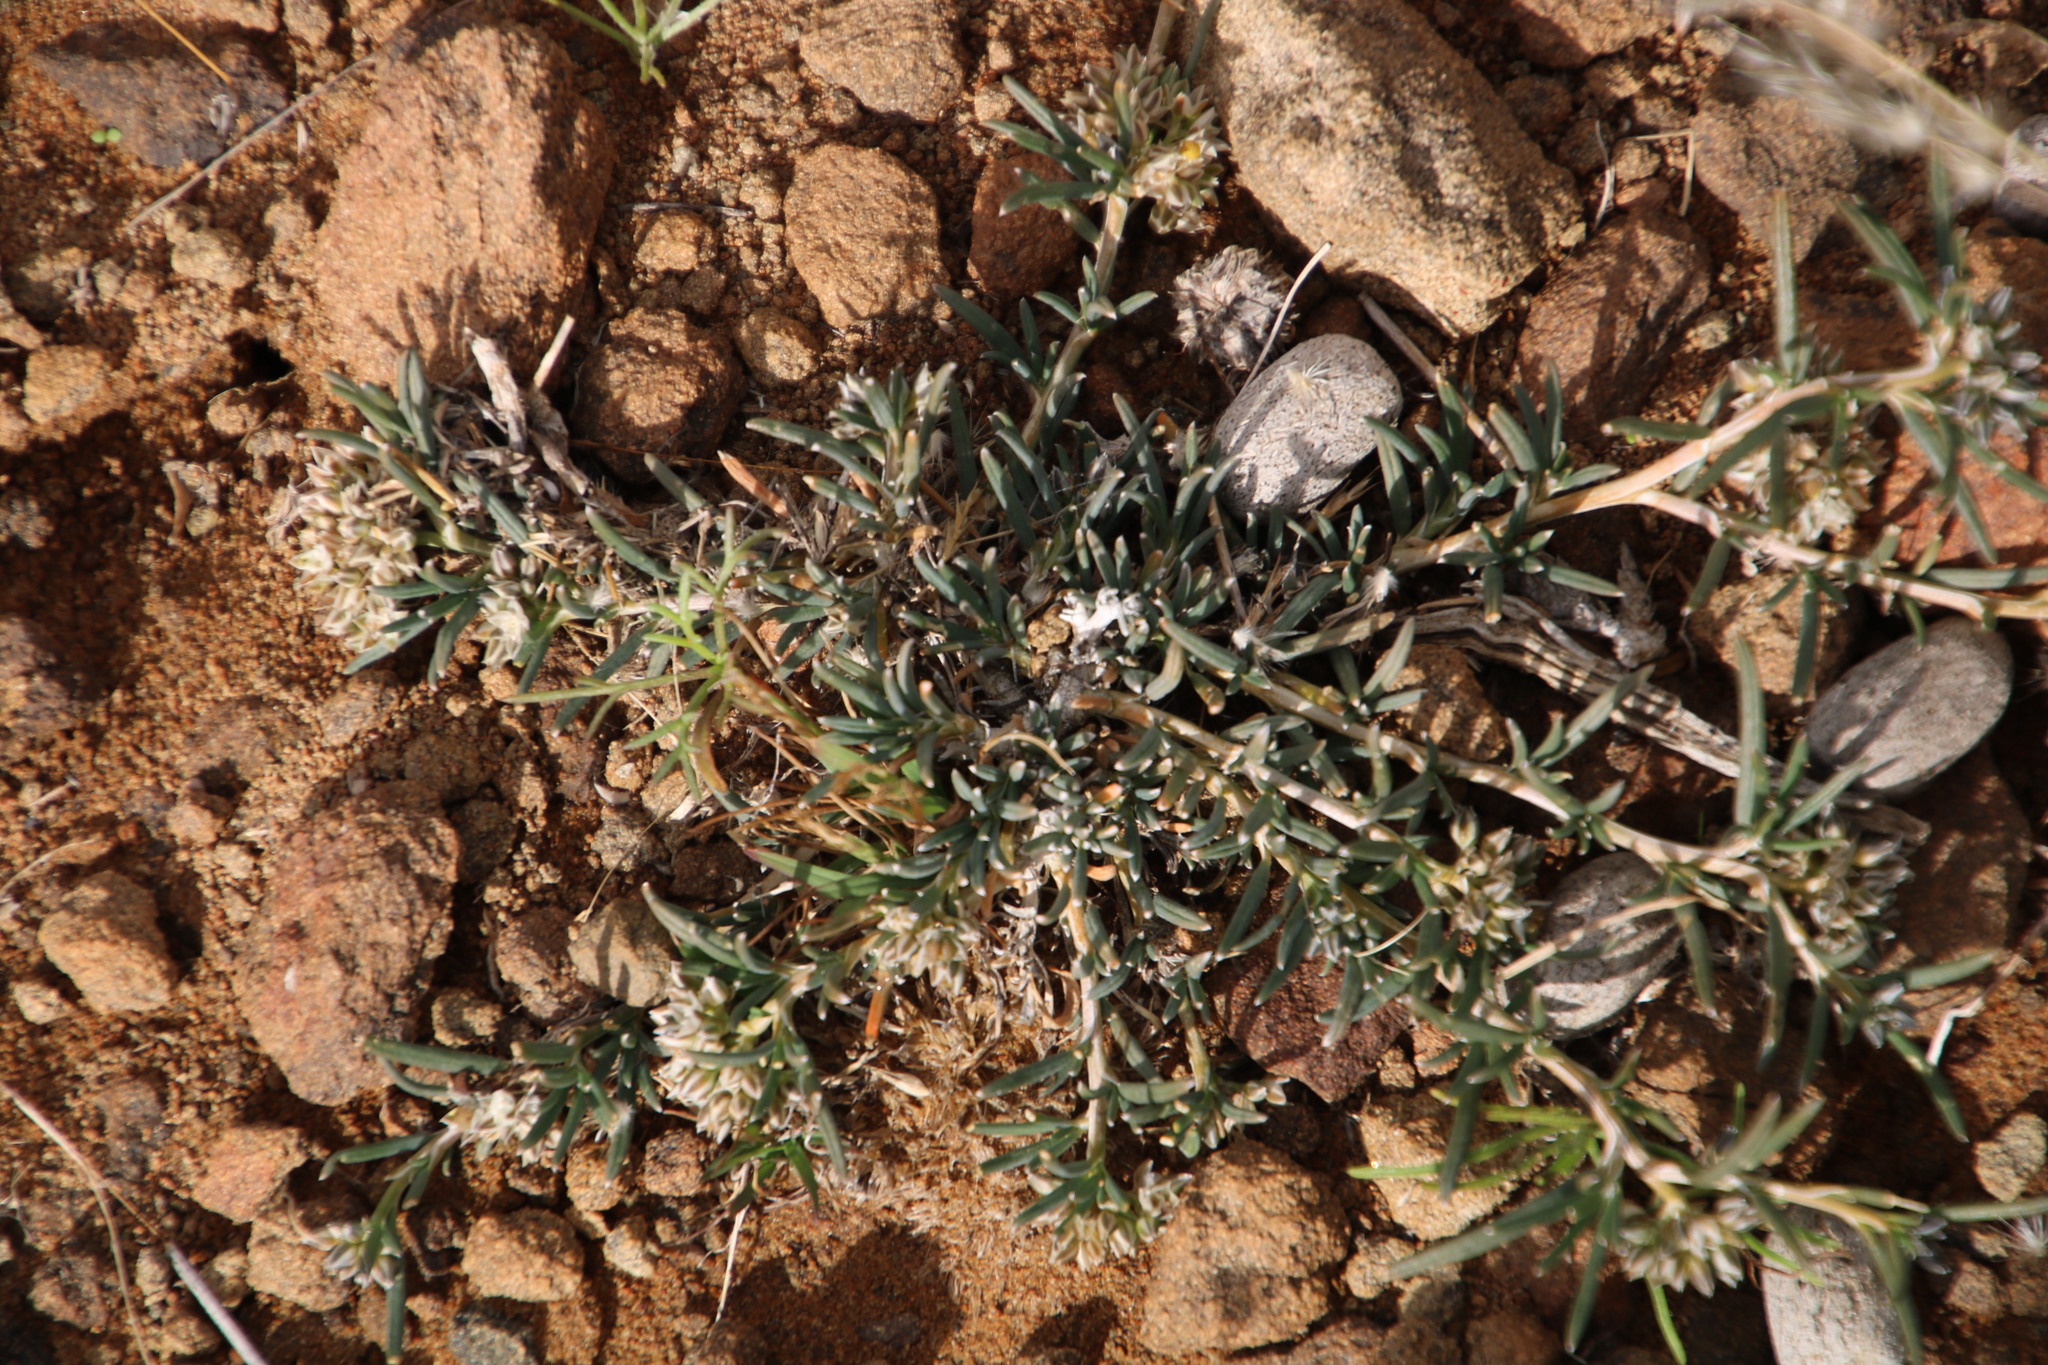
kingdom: Plantae
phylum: Tracheophyta
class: Magnoliopsida
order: Caryophyllales
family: Limeaceae
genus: Limeum
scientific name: Limeum aethiopicum
